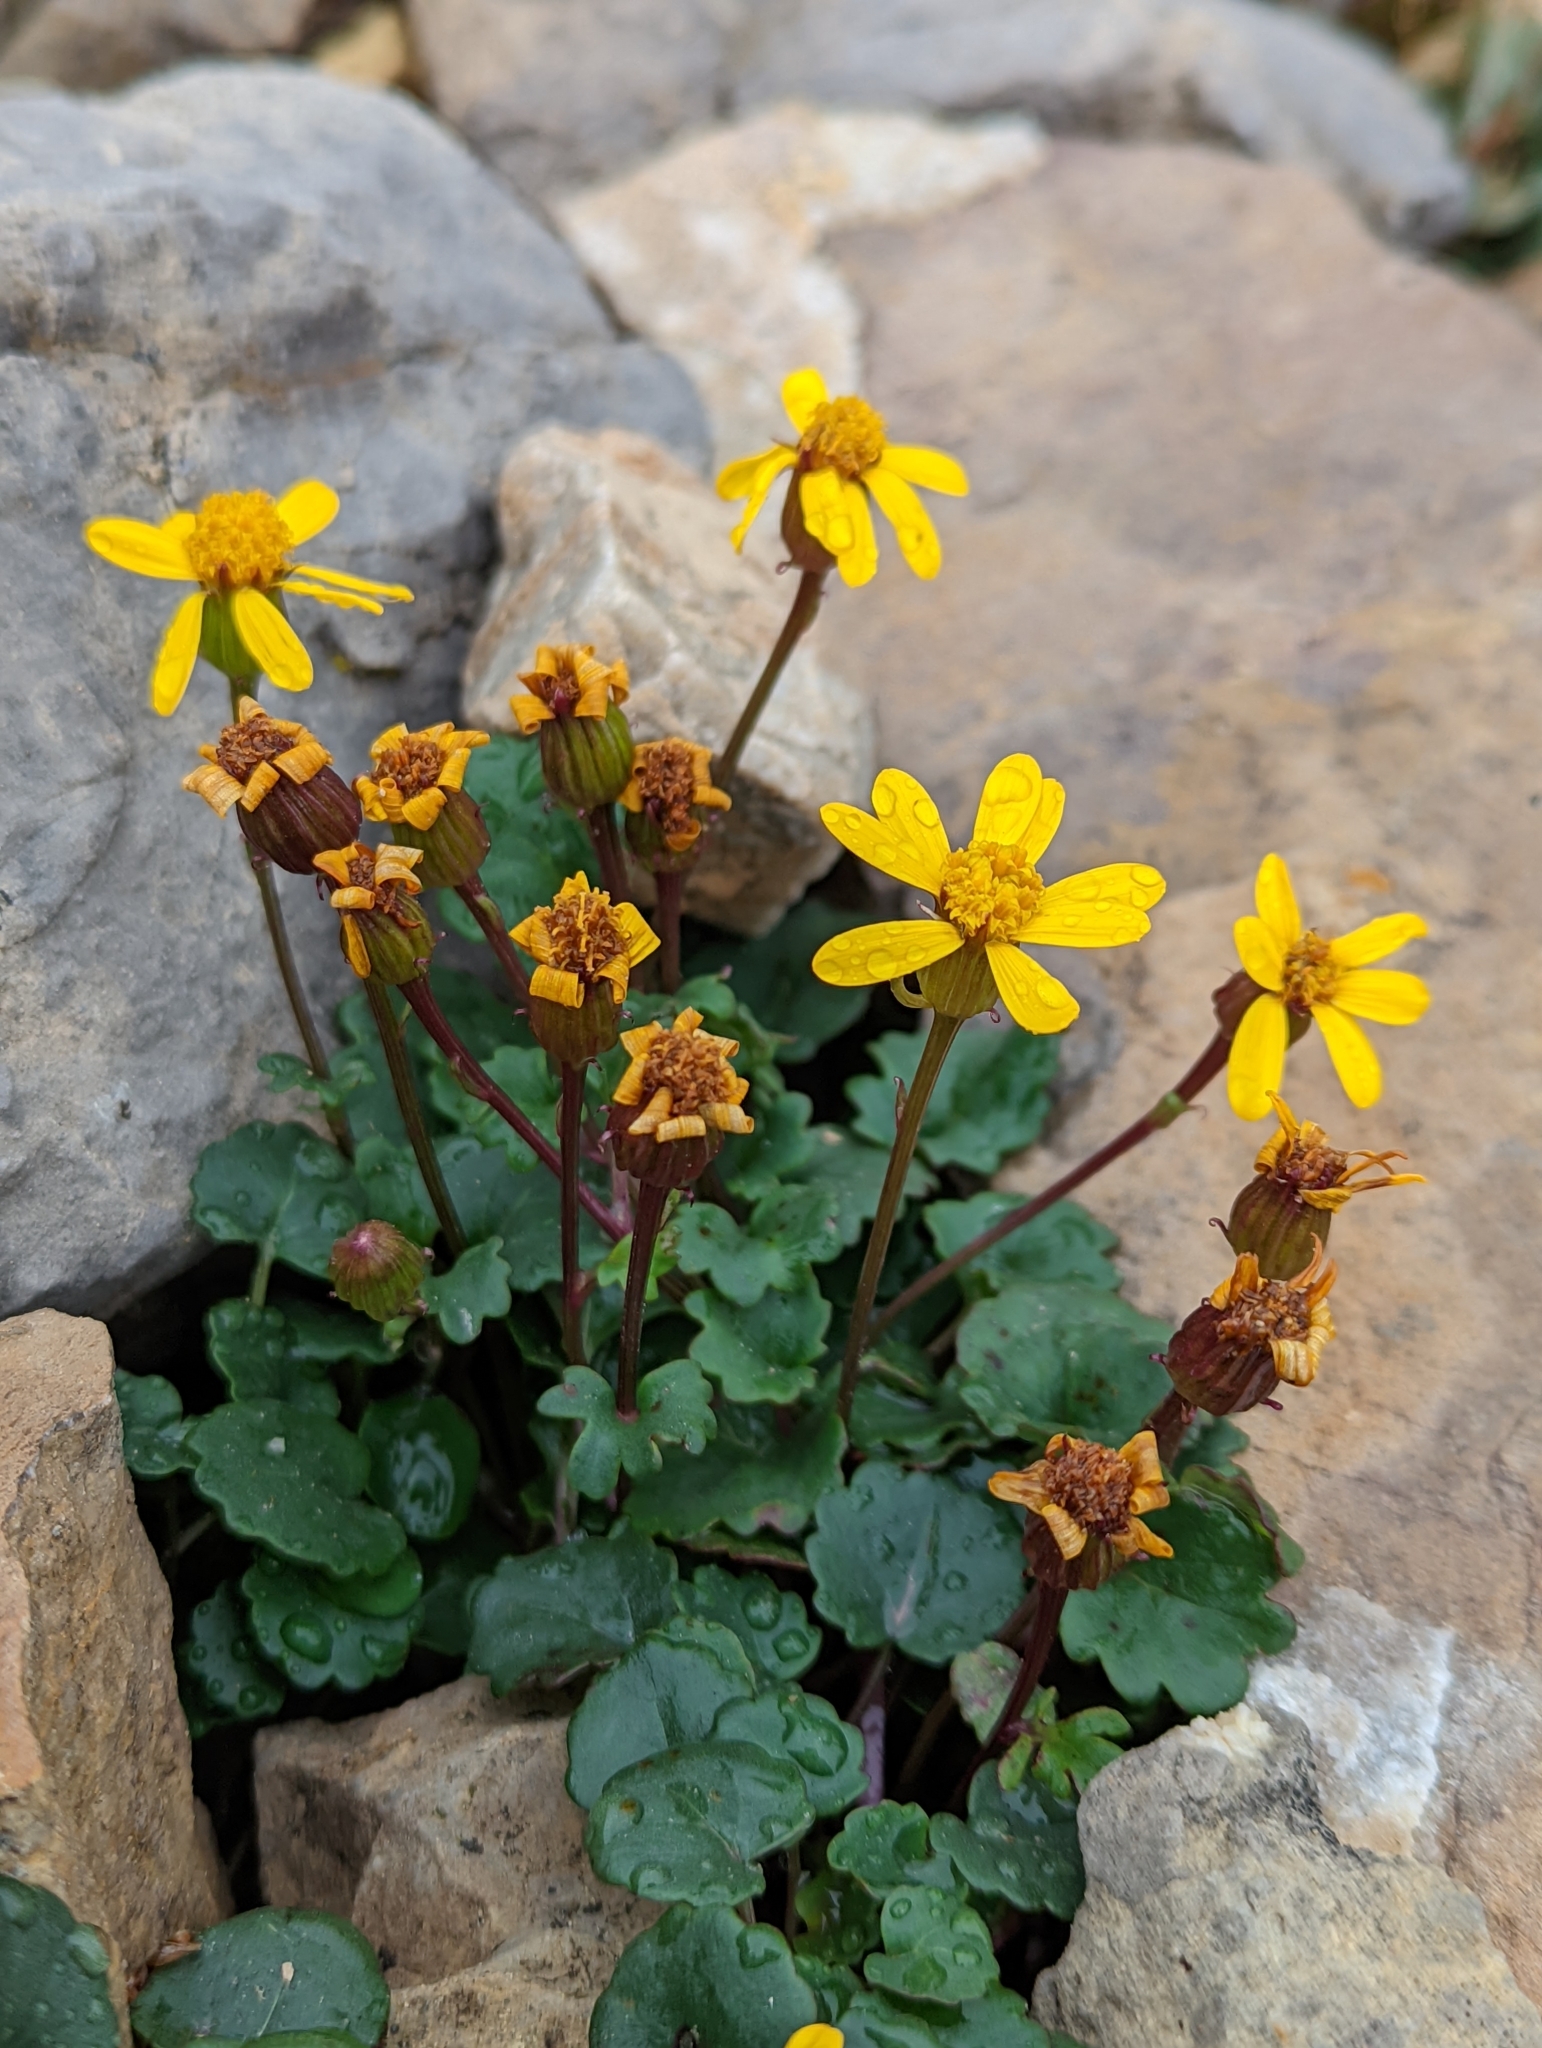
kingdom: Plantae
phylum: Tracheophyta
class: Magnoliopsida
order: Asterales
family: Asteraceae
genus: Packera
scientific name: Packera porteri
